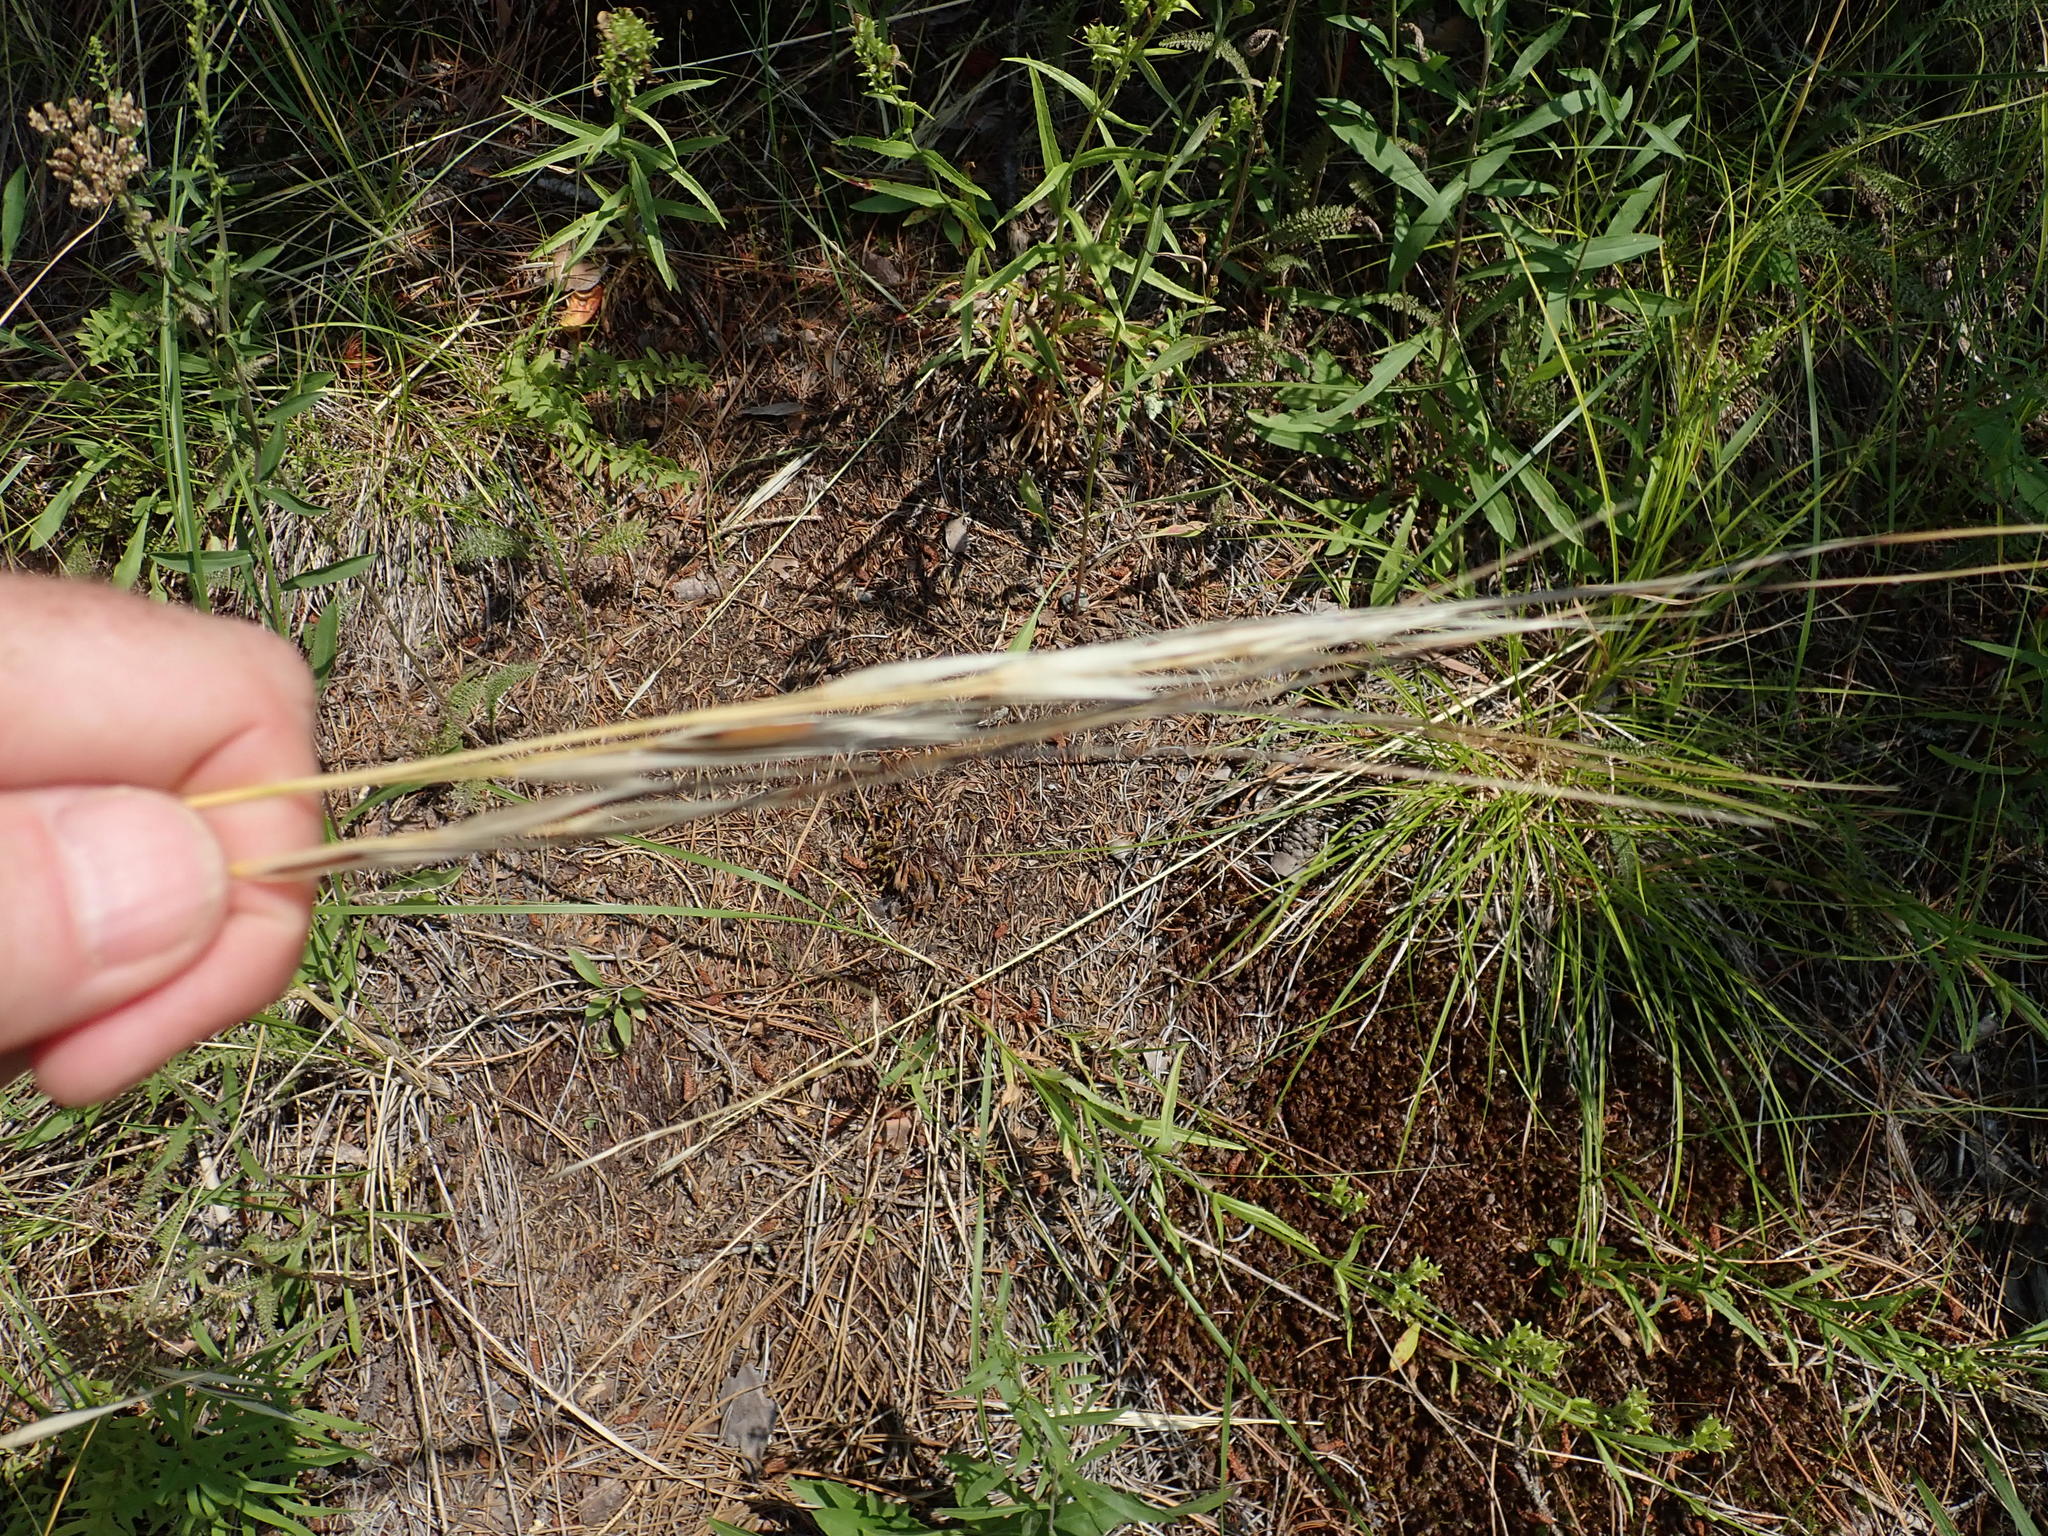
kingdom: Plantae
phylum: Tracheophyta
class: Liliopsida
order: Poales
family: Poaceae
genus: Hesperostipa
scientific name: Hesperostipa spartea
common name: Porcupine grass
